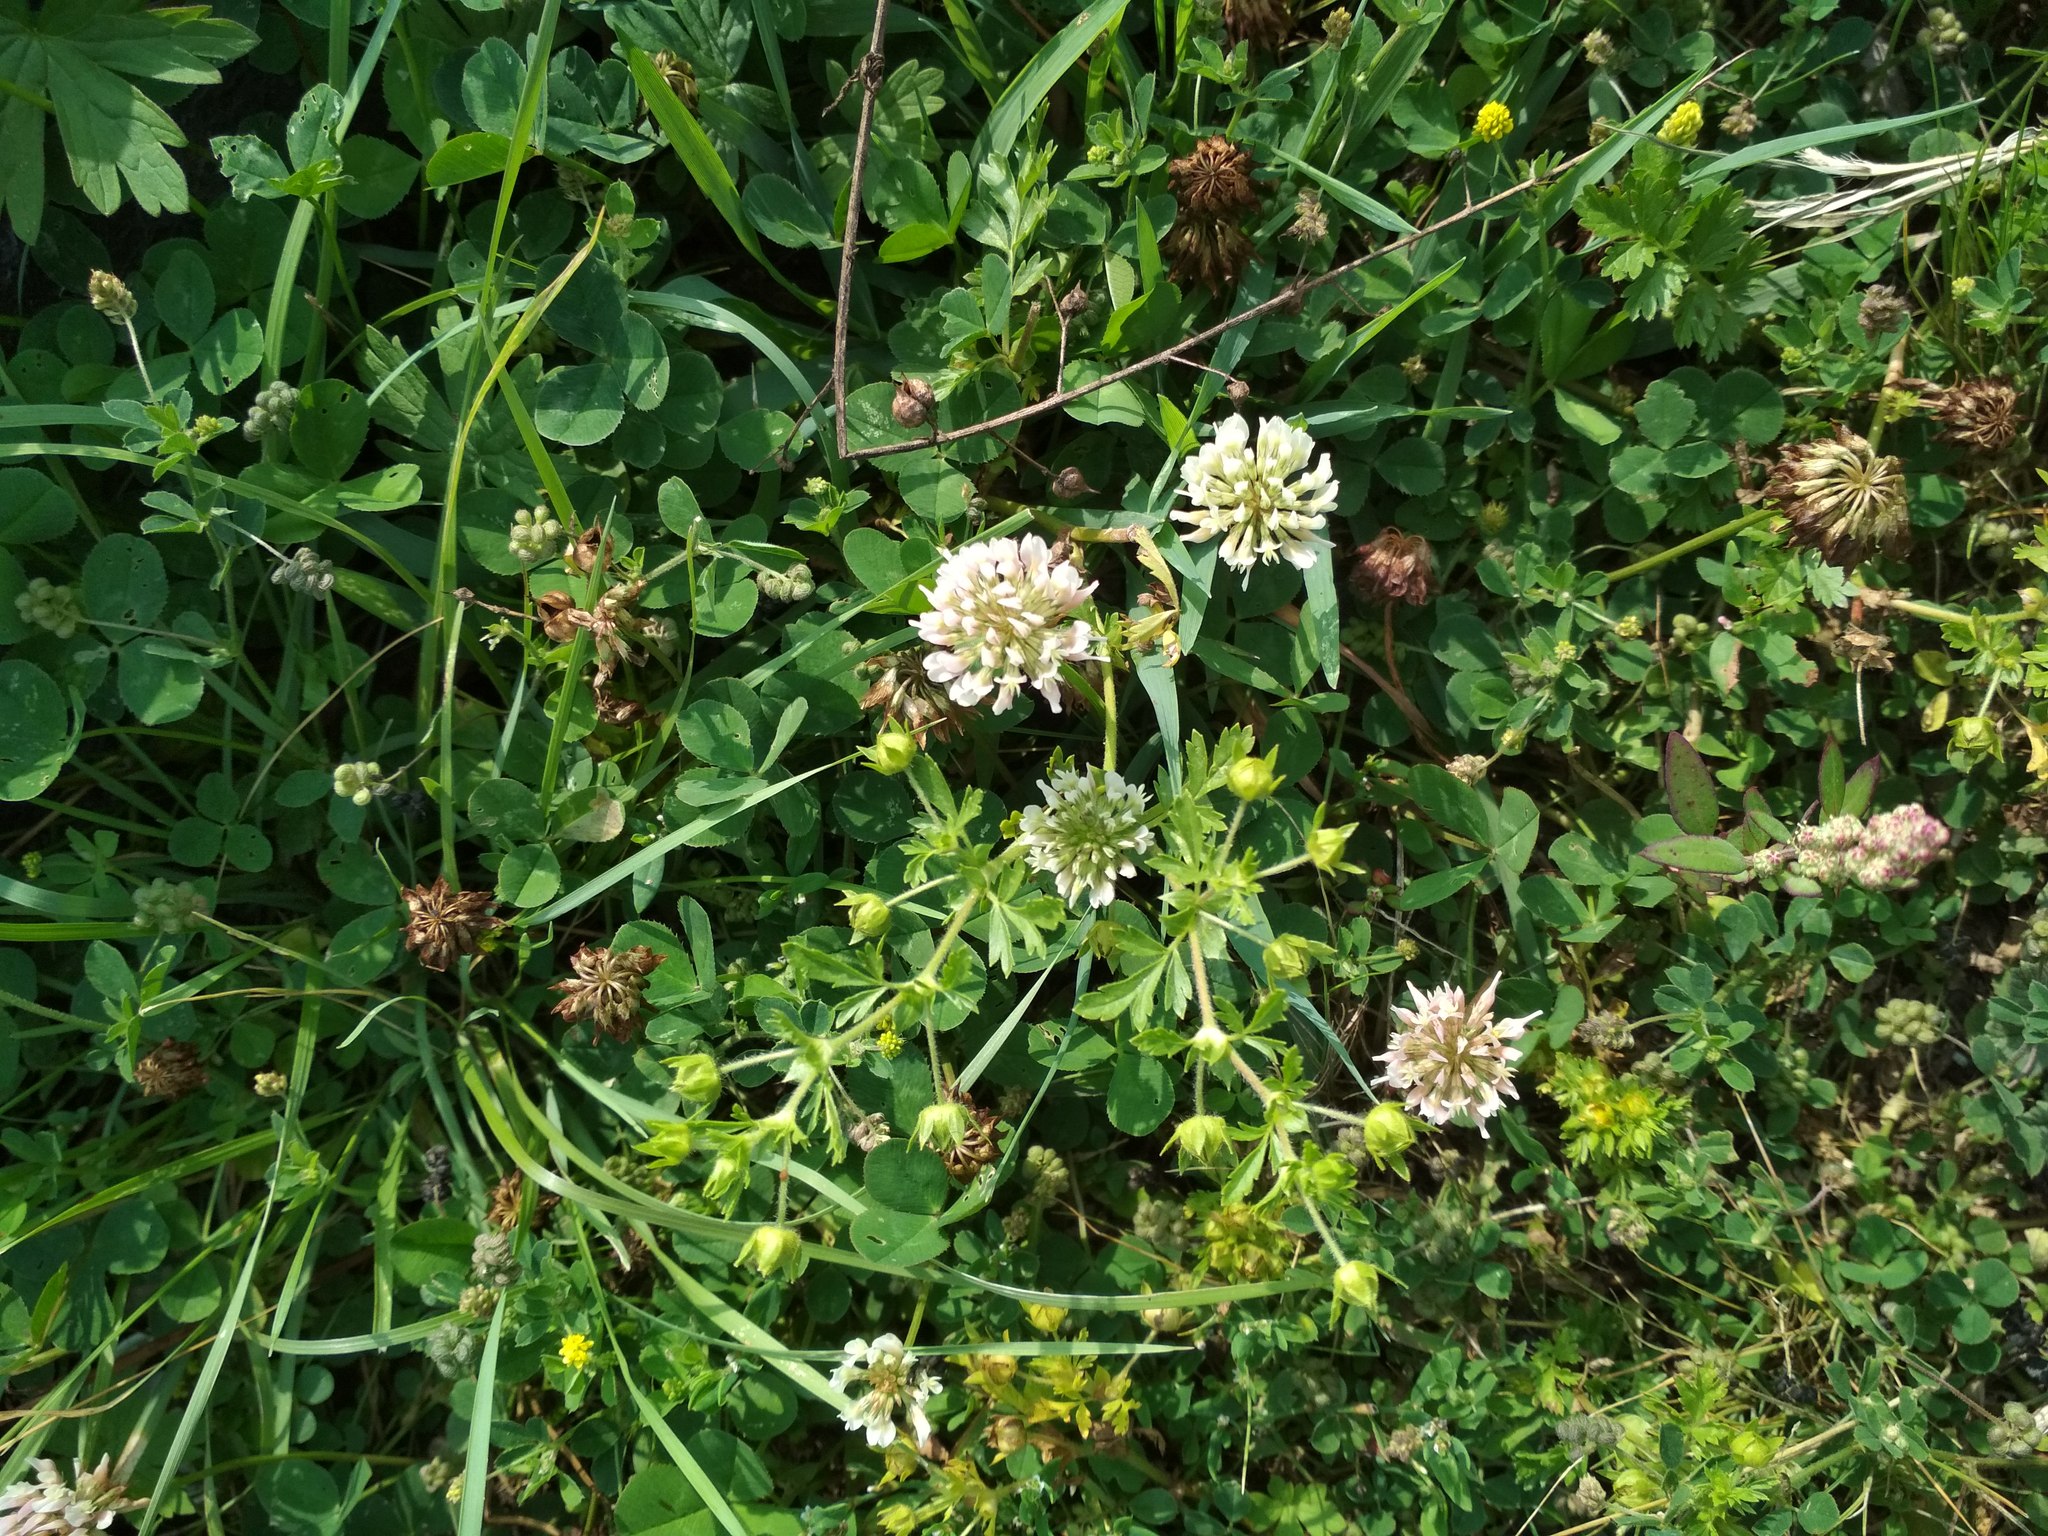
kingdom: Plantae
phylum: Tracheophyta
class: Magnoliopsida
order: Fabales
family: Fabaceae
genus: Trifolium
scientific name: Trifolium repens
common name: White clover
